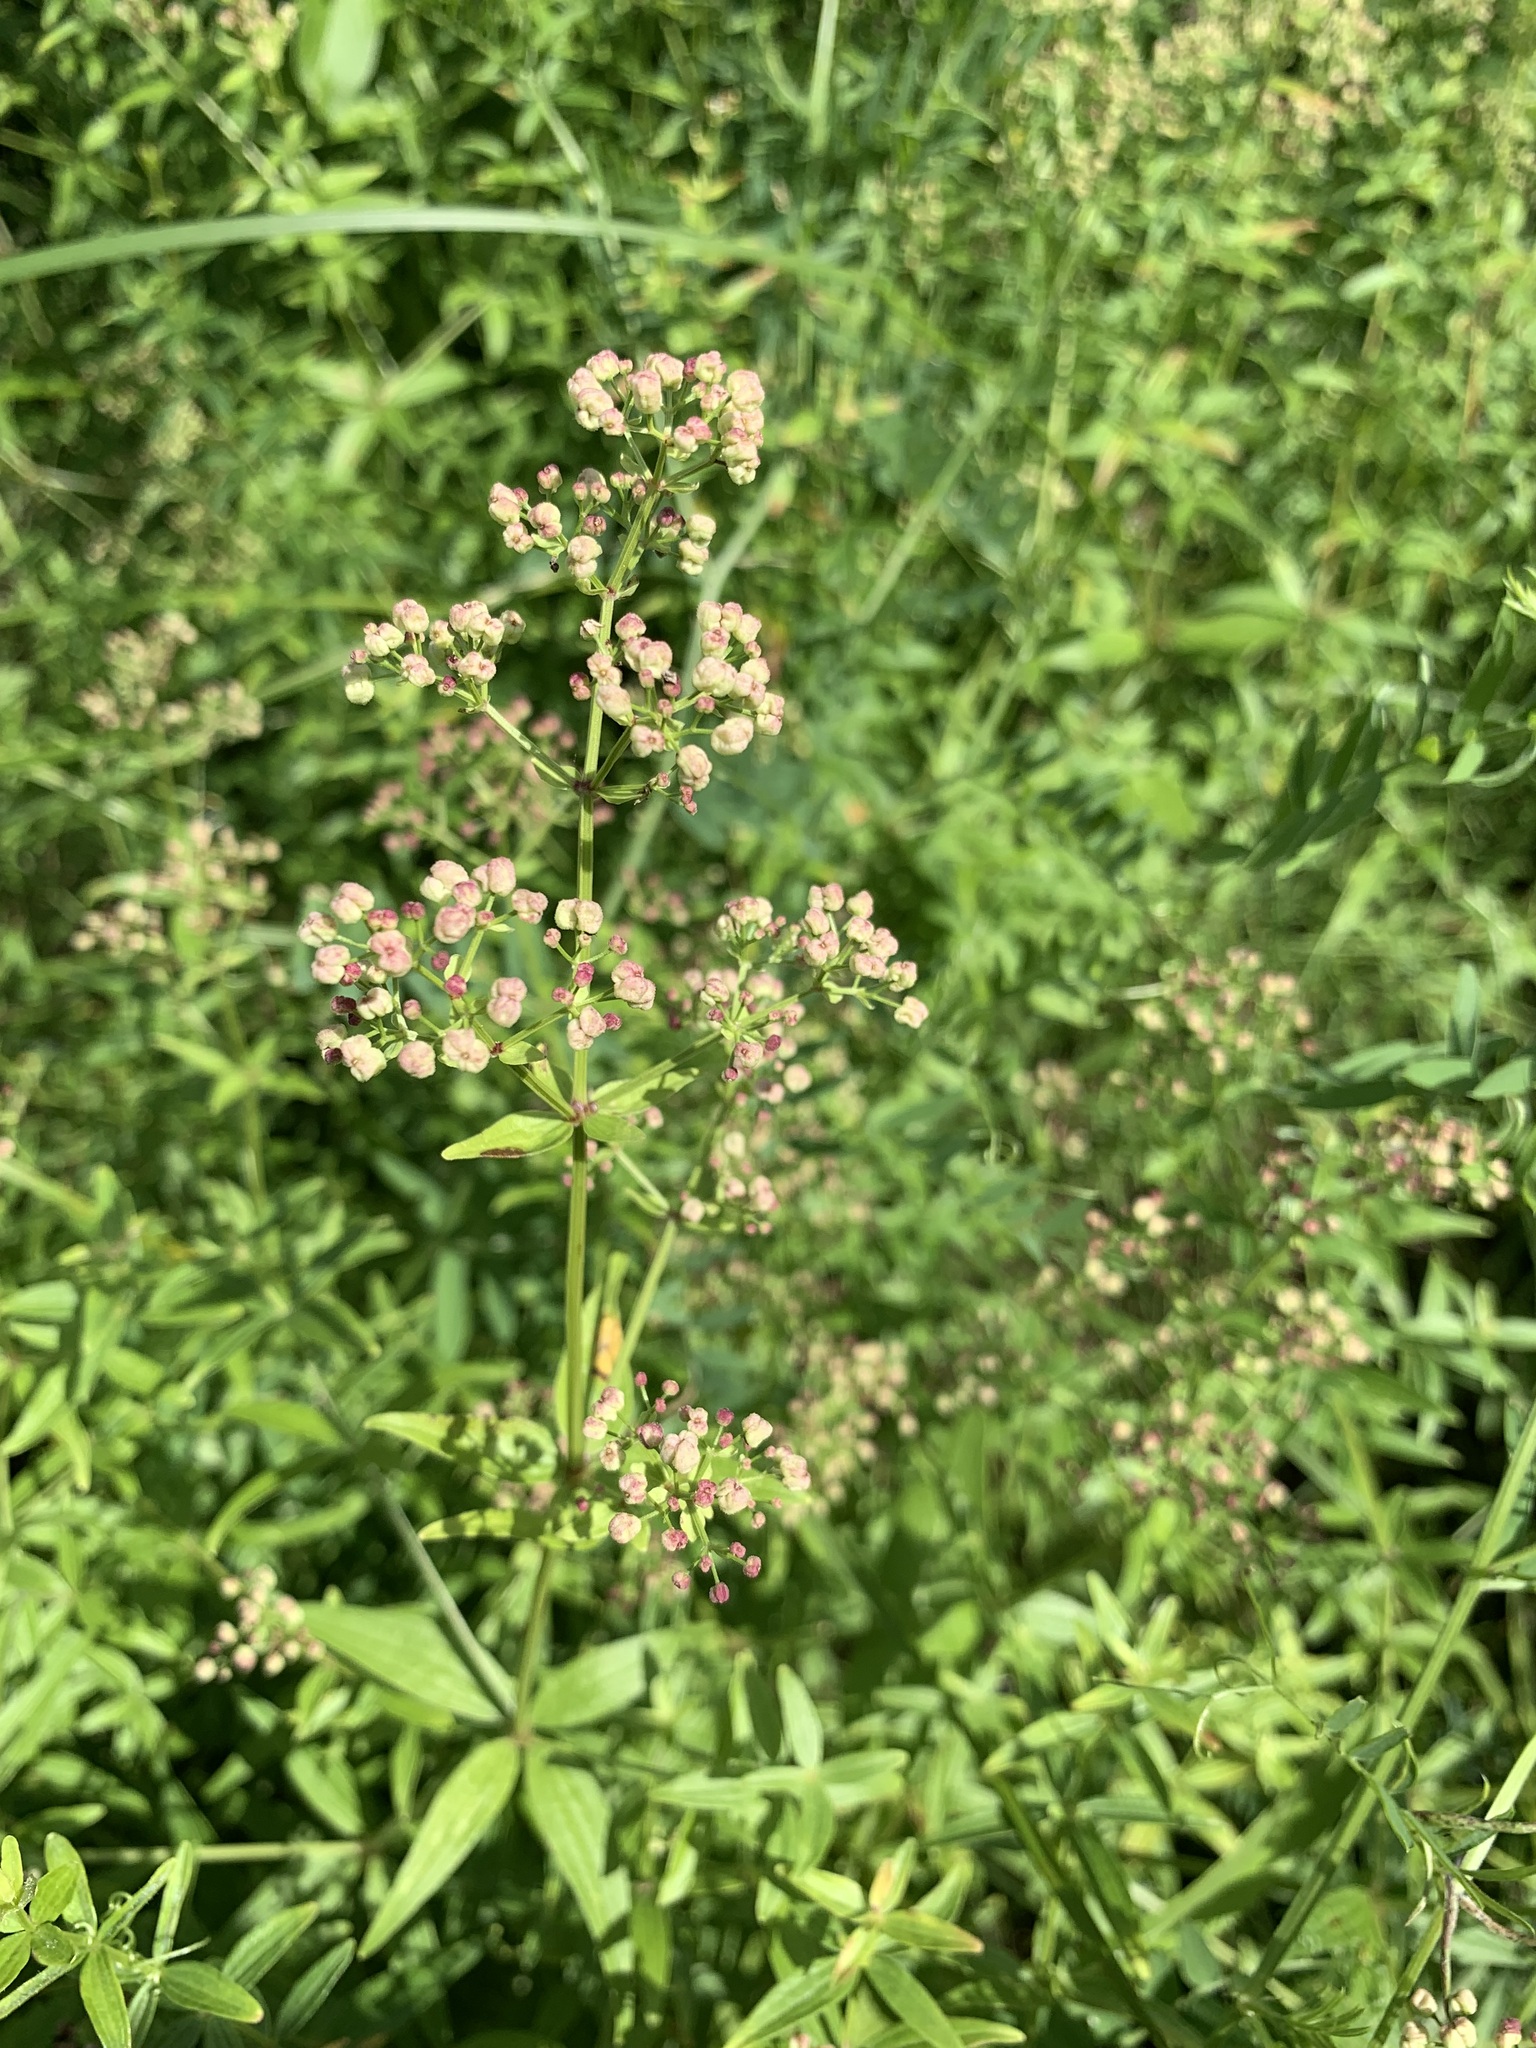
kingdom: Plantae
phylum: Tracheophyta
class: Magnoliopsida
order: Gentianales
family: Rubiaceae
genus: Galium
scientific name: Galium rubioides
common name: European bedstraw
